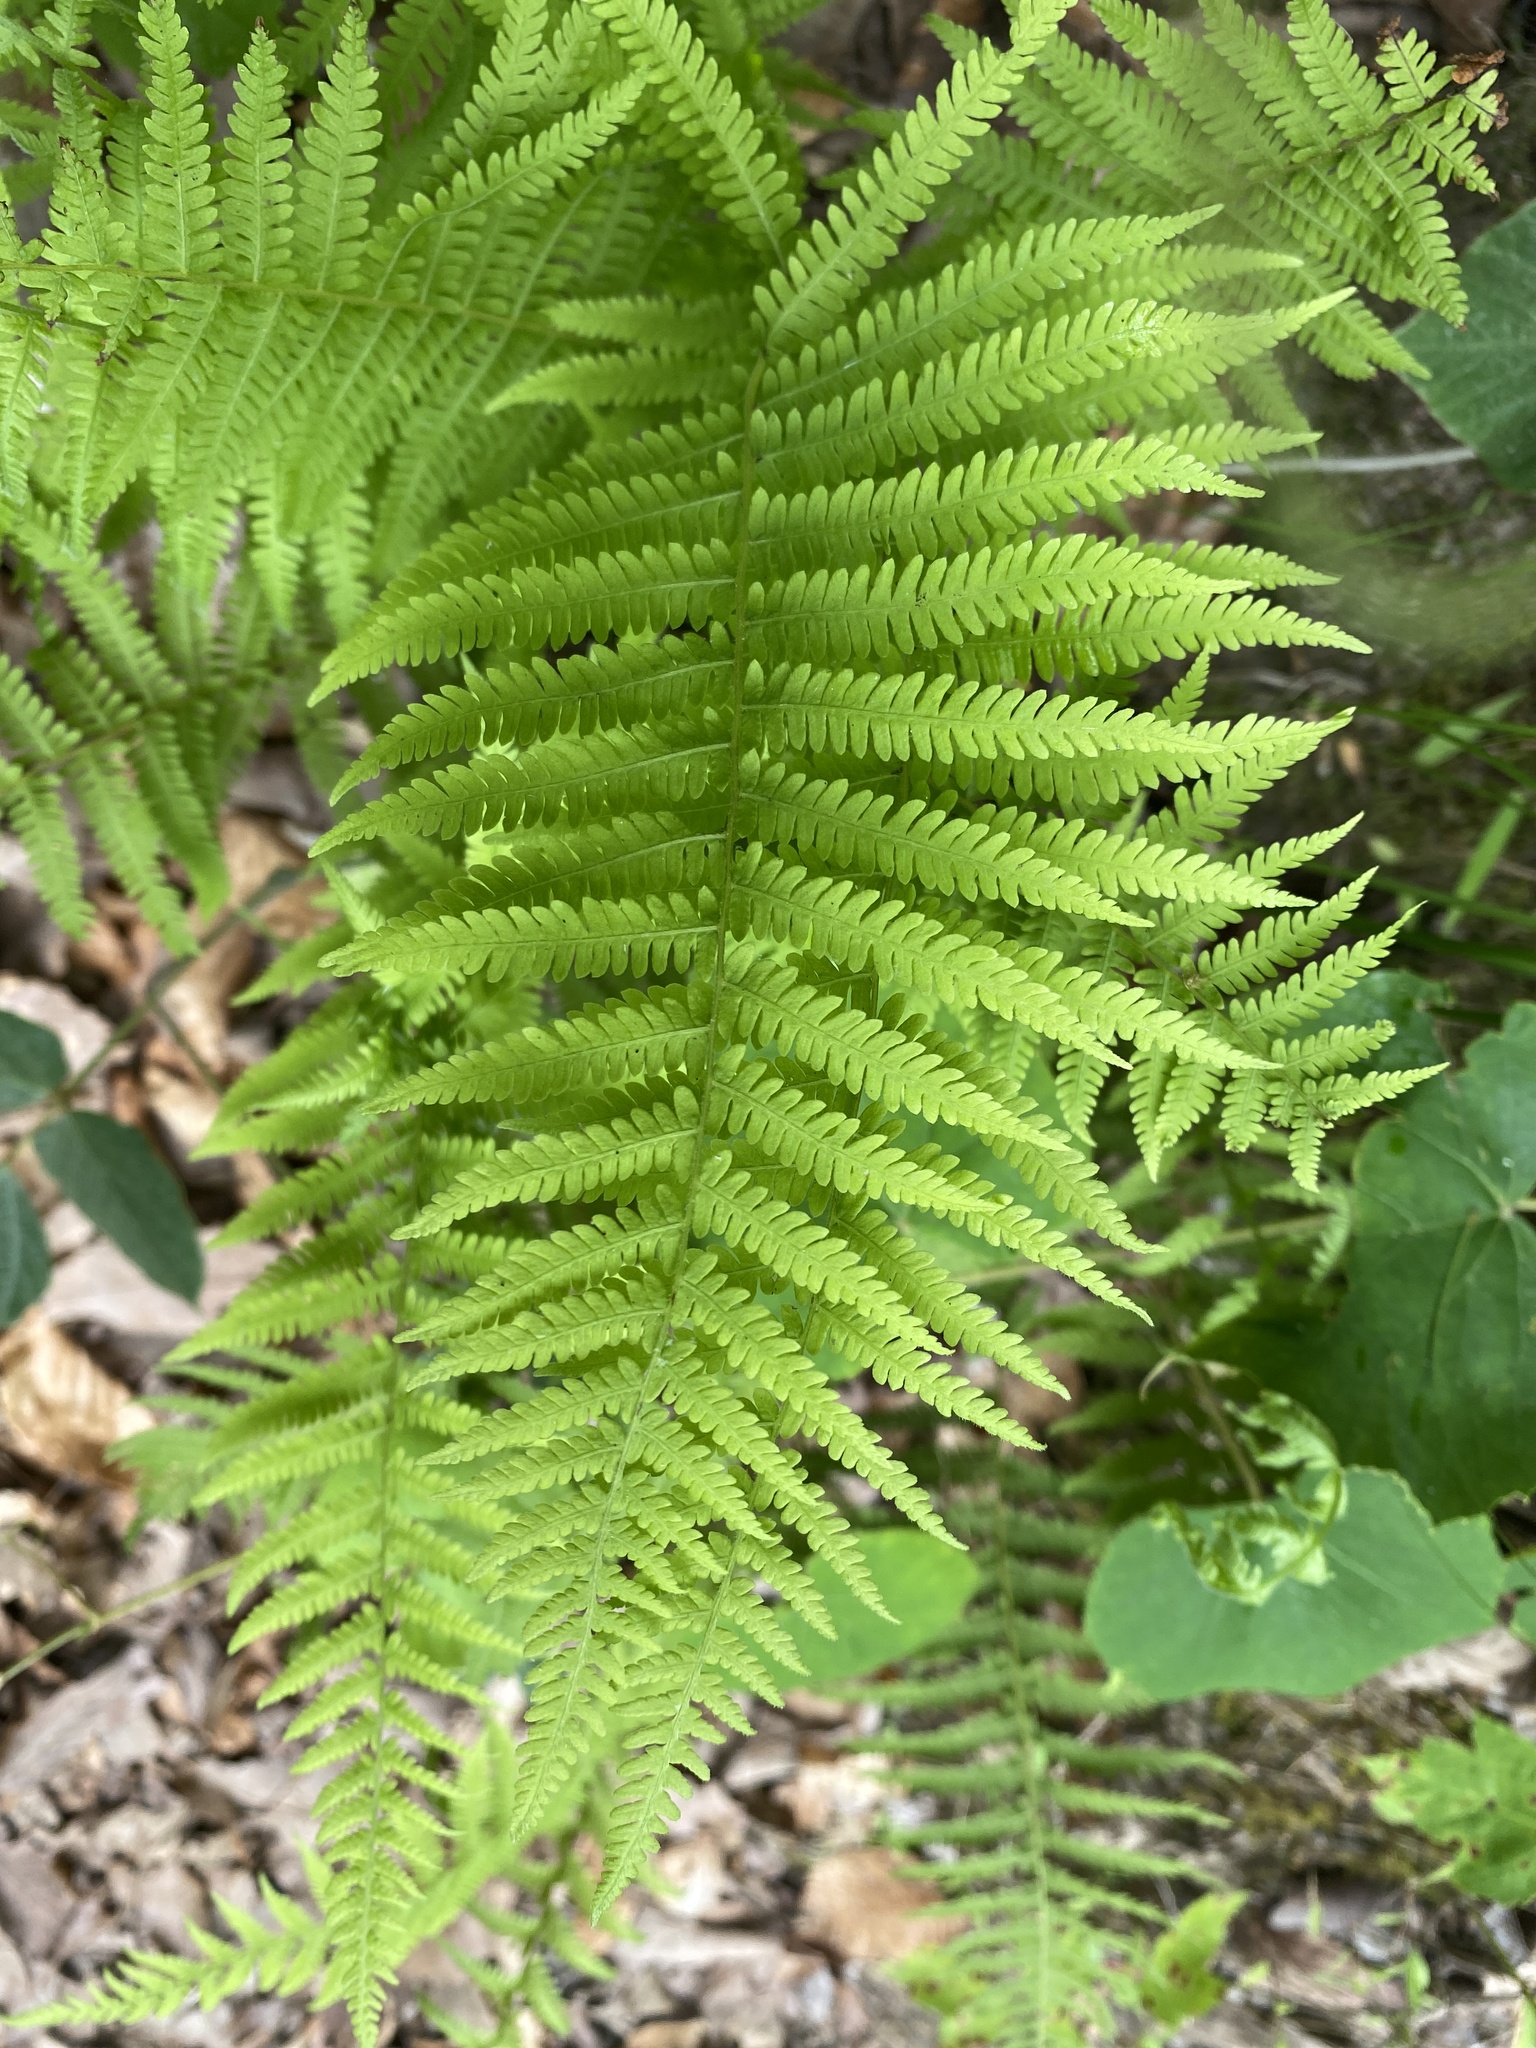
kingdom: Plantae
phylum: Tracheophyta
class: Polypodiopsida
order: Polypodiales
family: Thelypteridaceae
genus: Amauropelta
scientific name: Amauropelta noveboracensis
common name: New york fern
